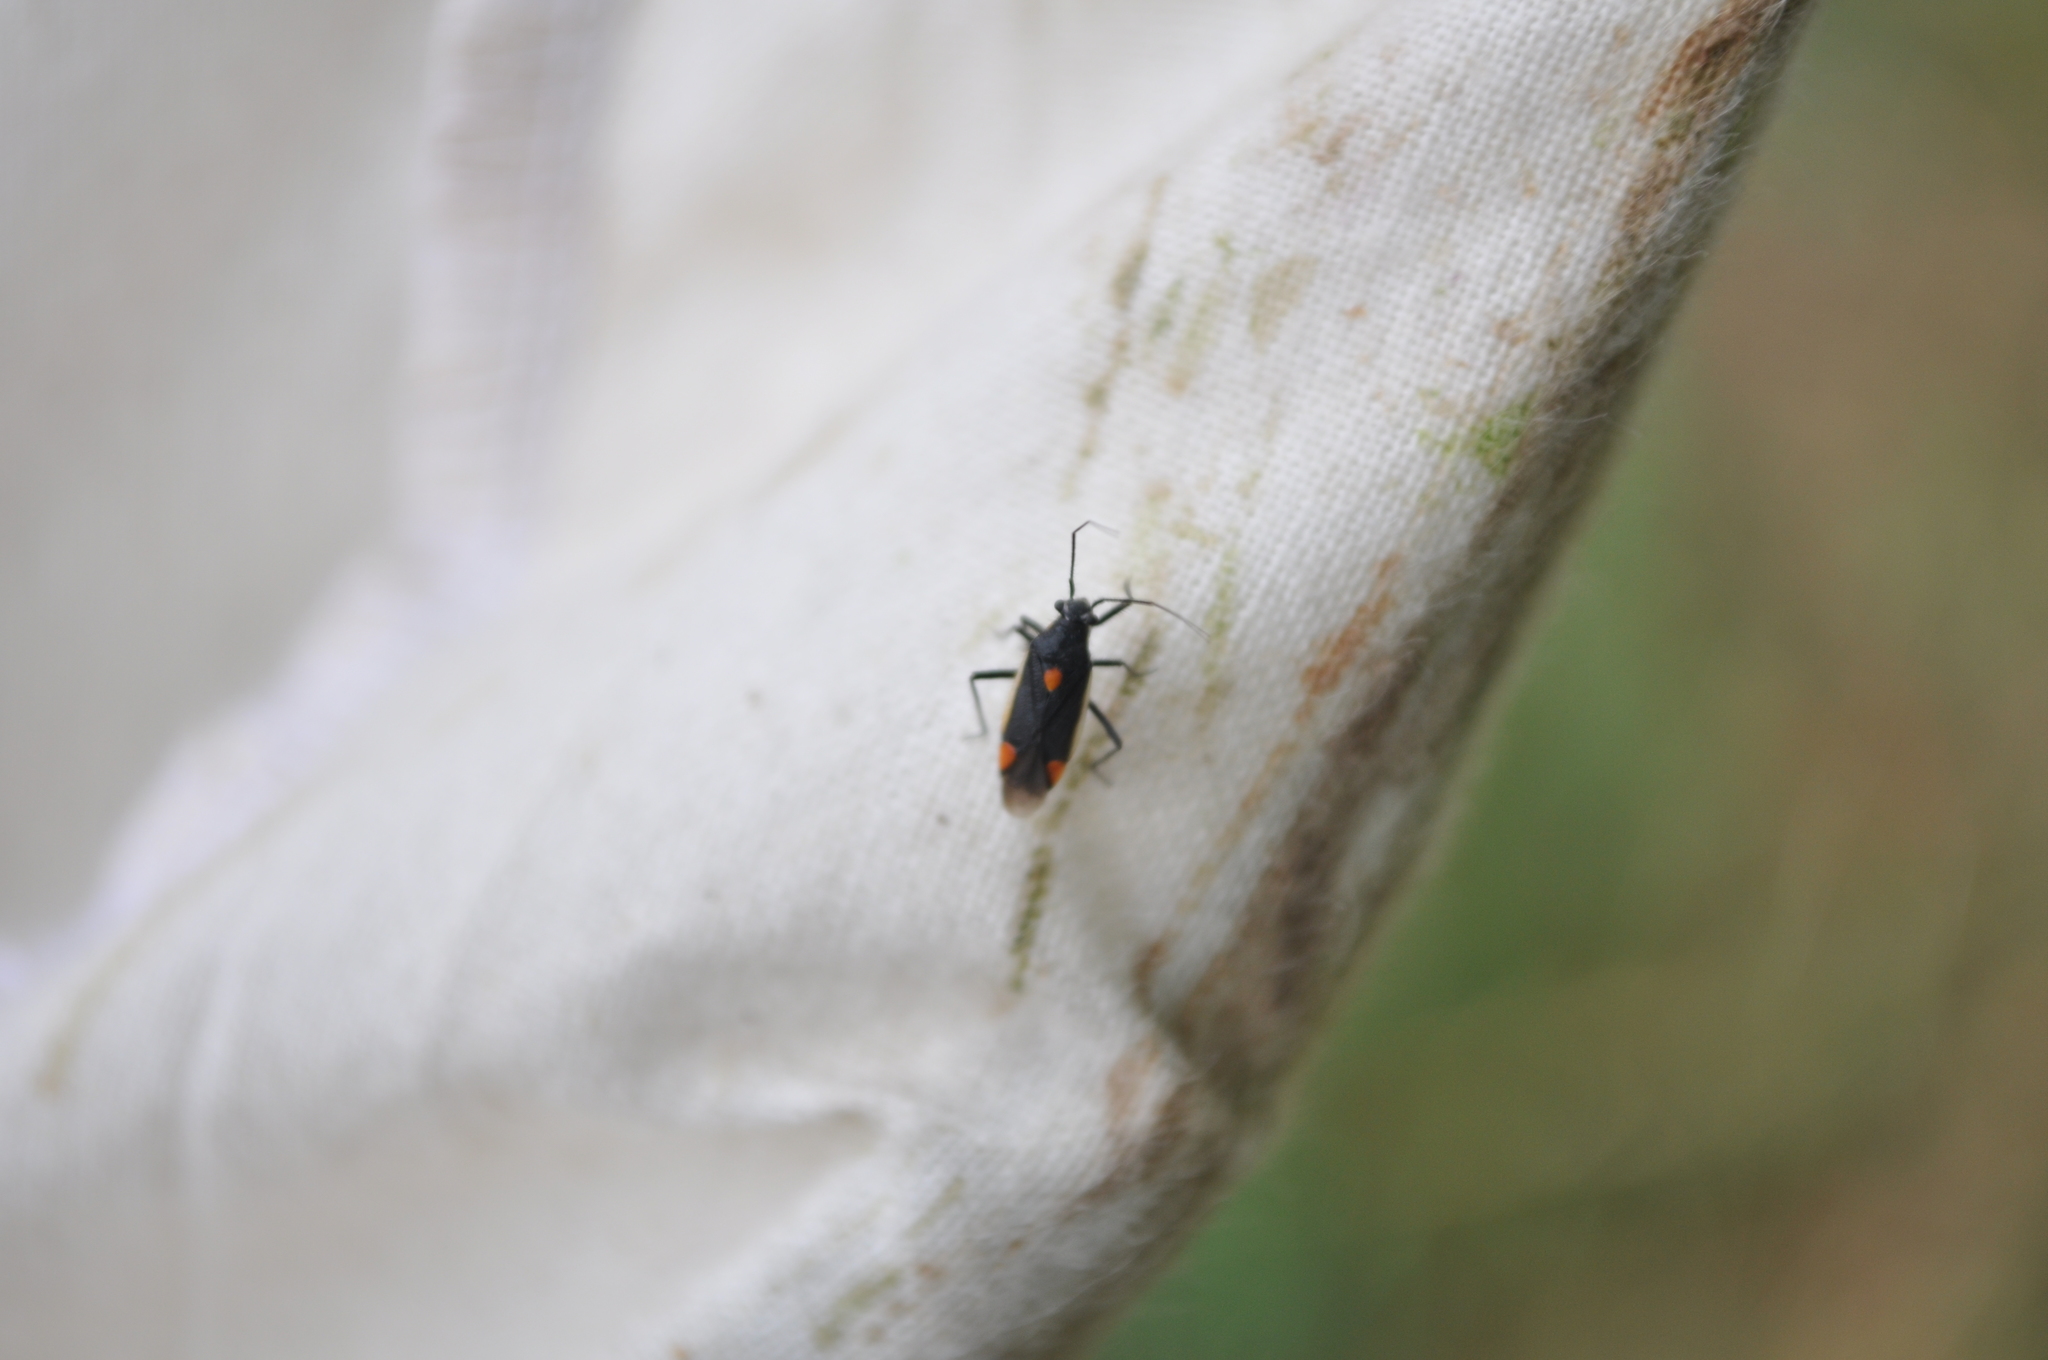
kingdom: Animalia
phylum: Arthropoda
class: Insecta
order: Hemiptera
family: Miridae
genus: Capsodes
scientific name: Capsodes gothicus
